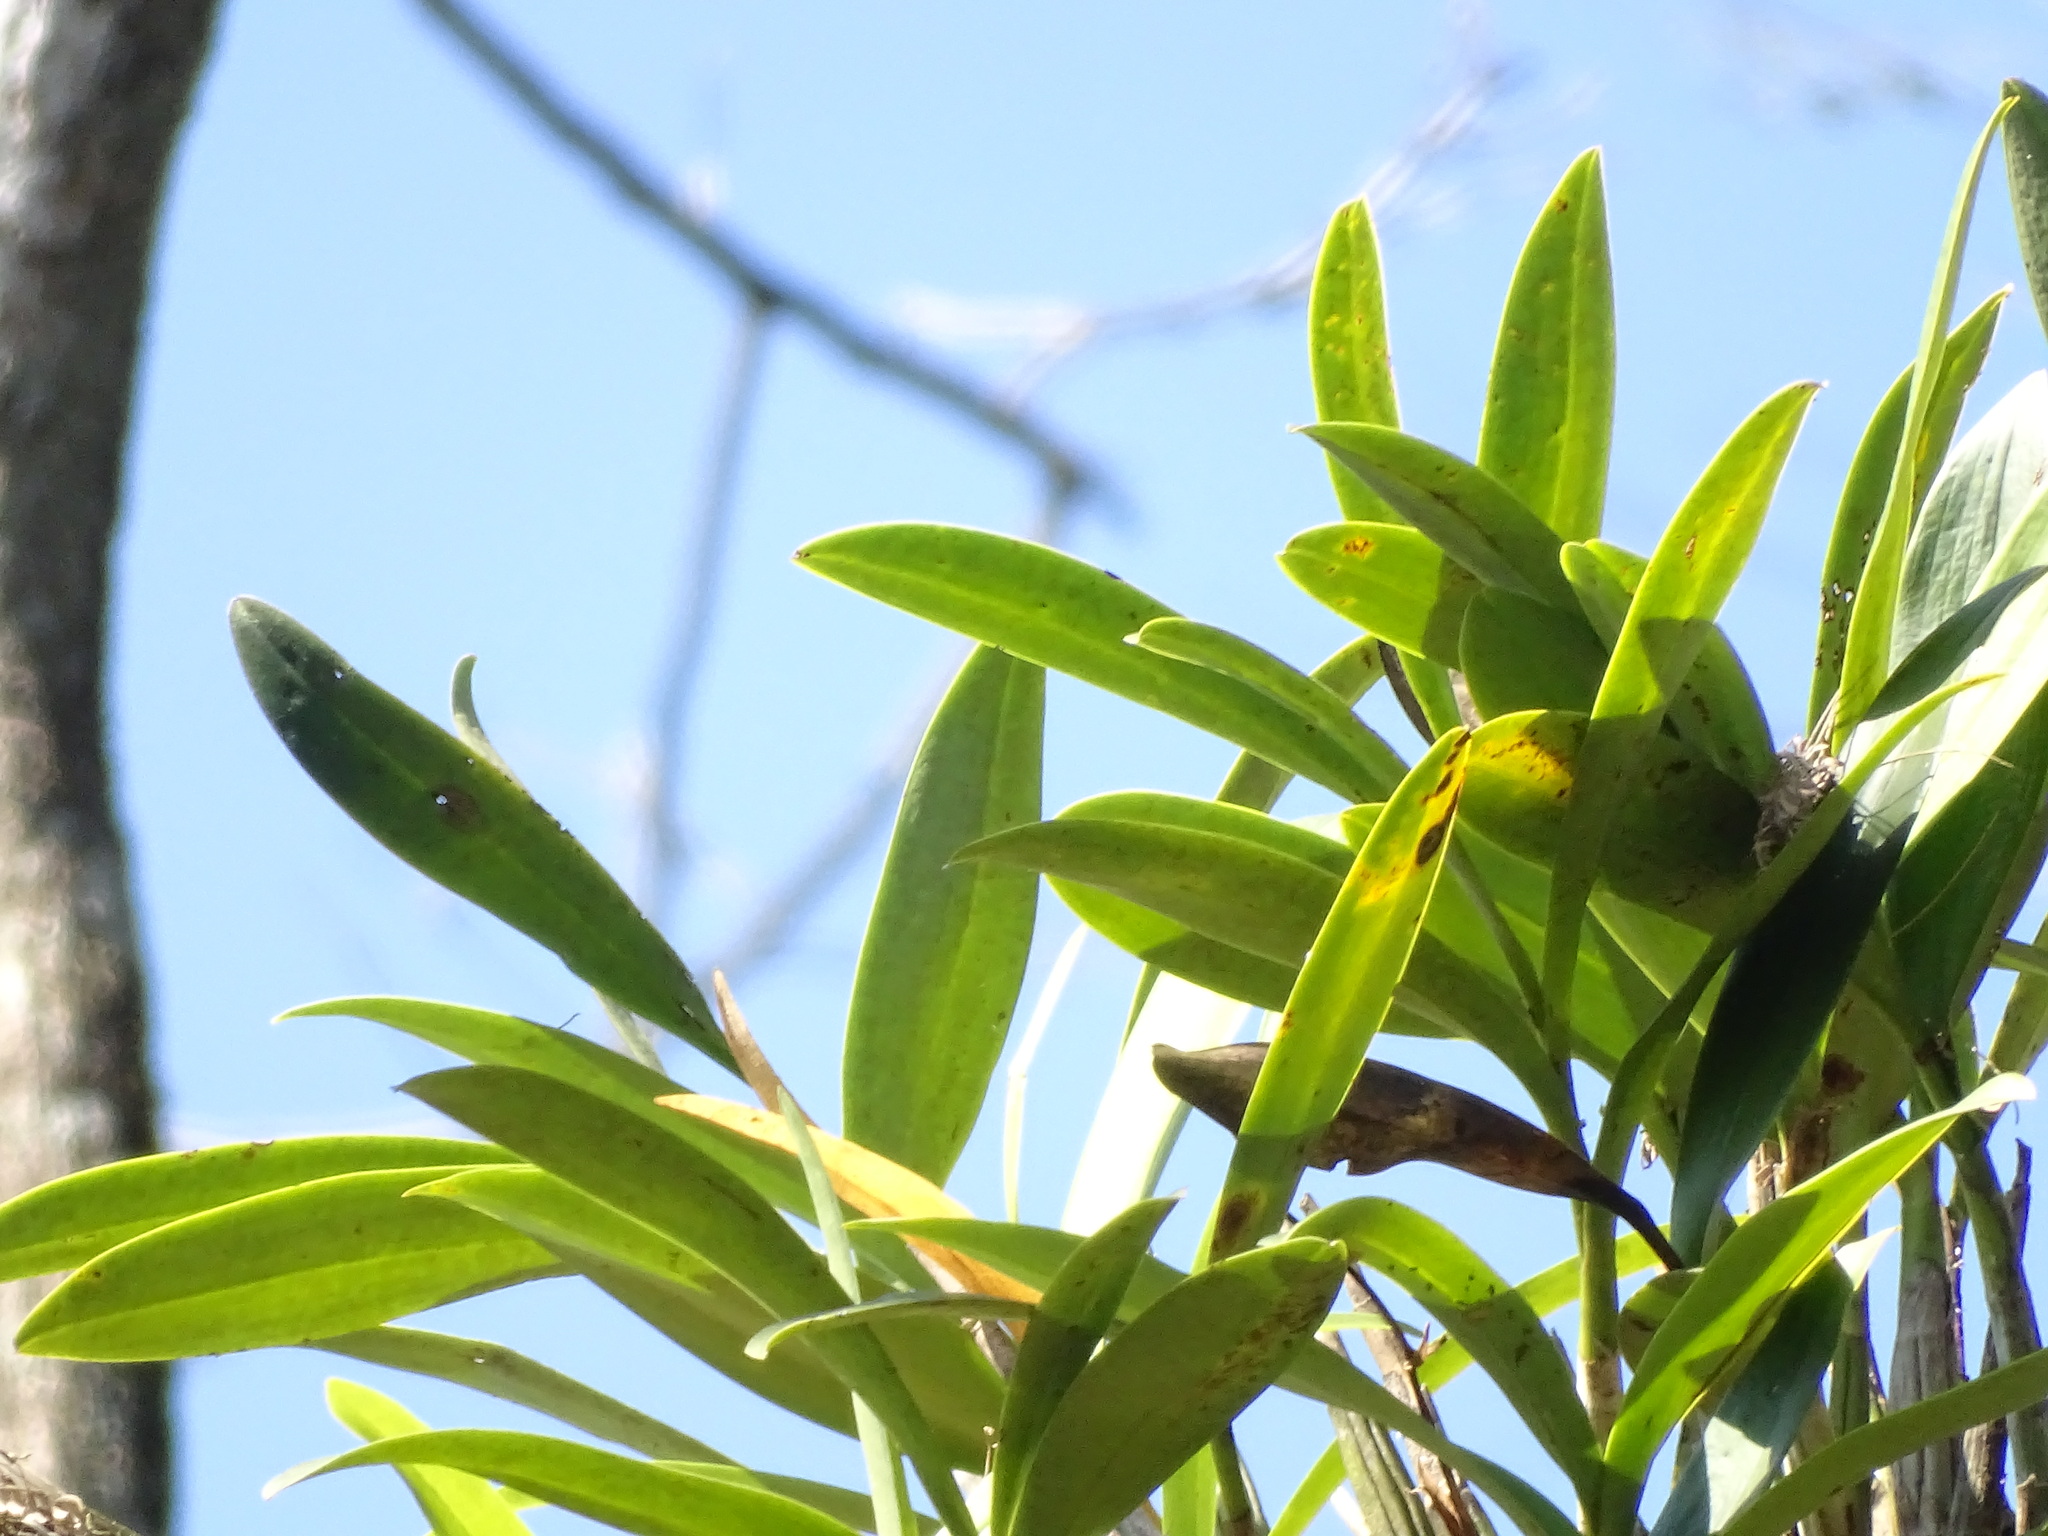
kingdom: Plantae
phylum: Tracheophyta
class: Liliopsida
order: Asparagales
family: Orchidaceae
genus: Epidendrum
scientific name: Epidendrum stamfordianum
